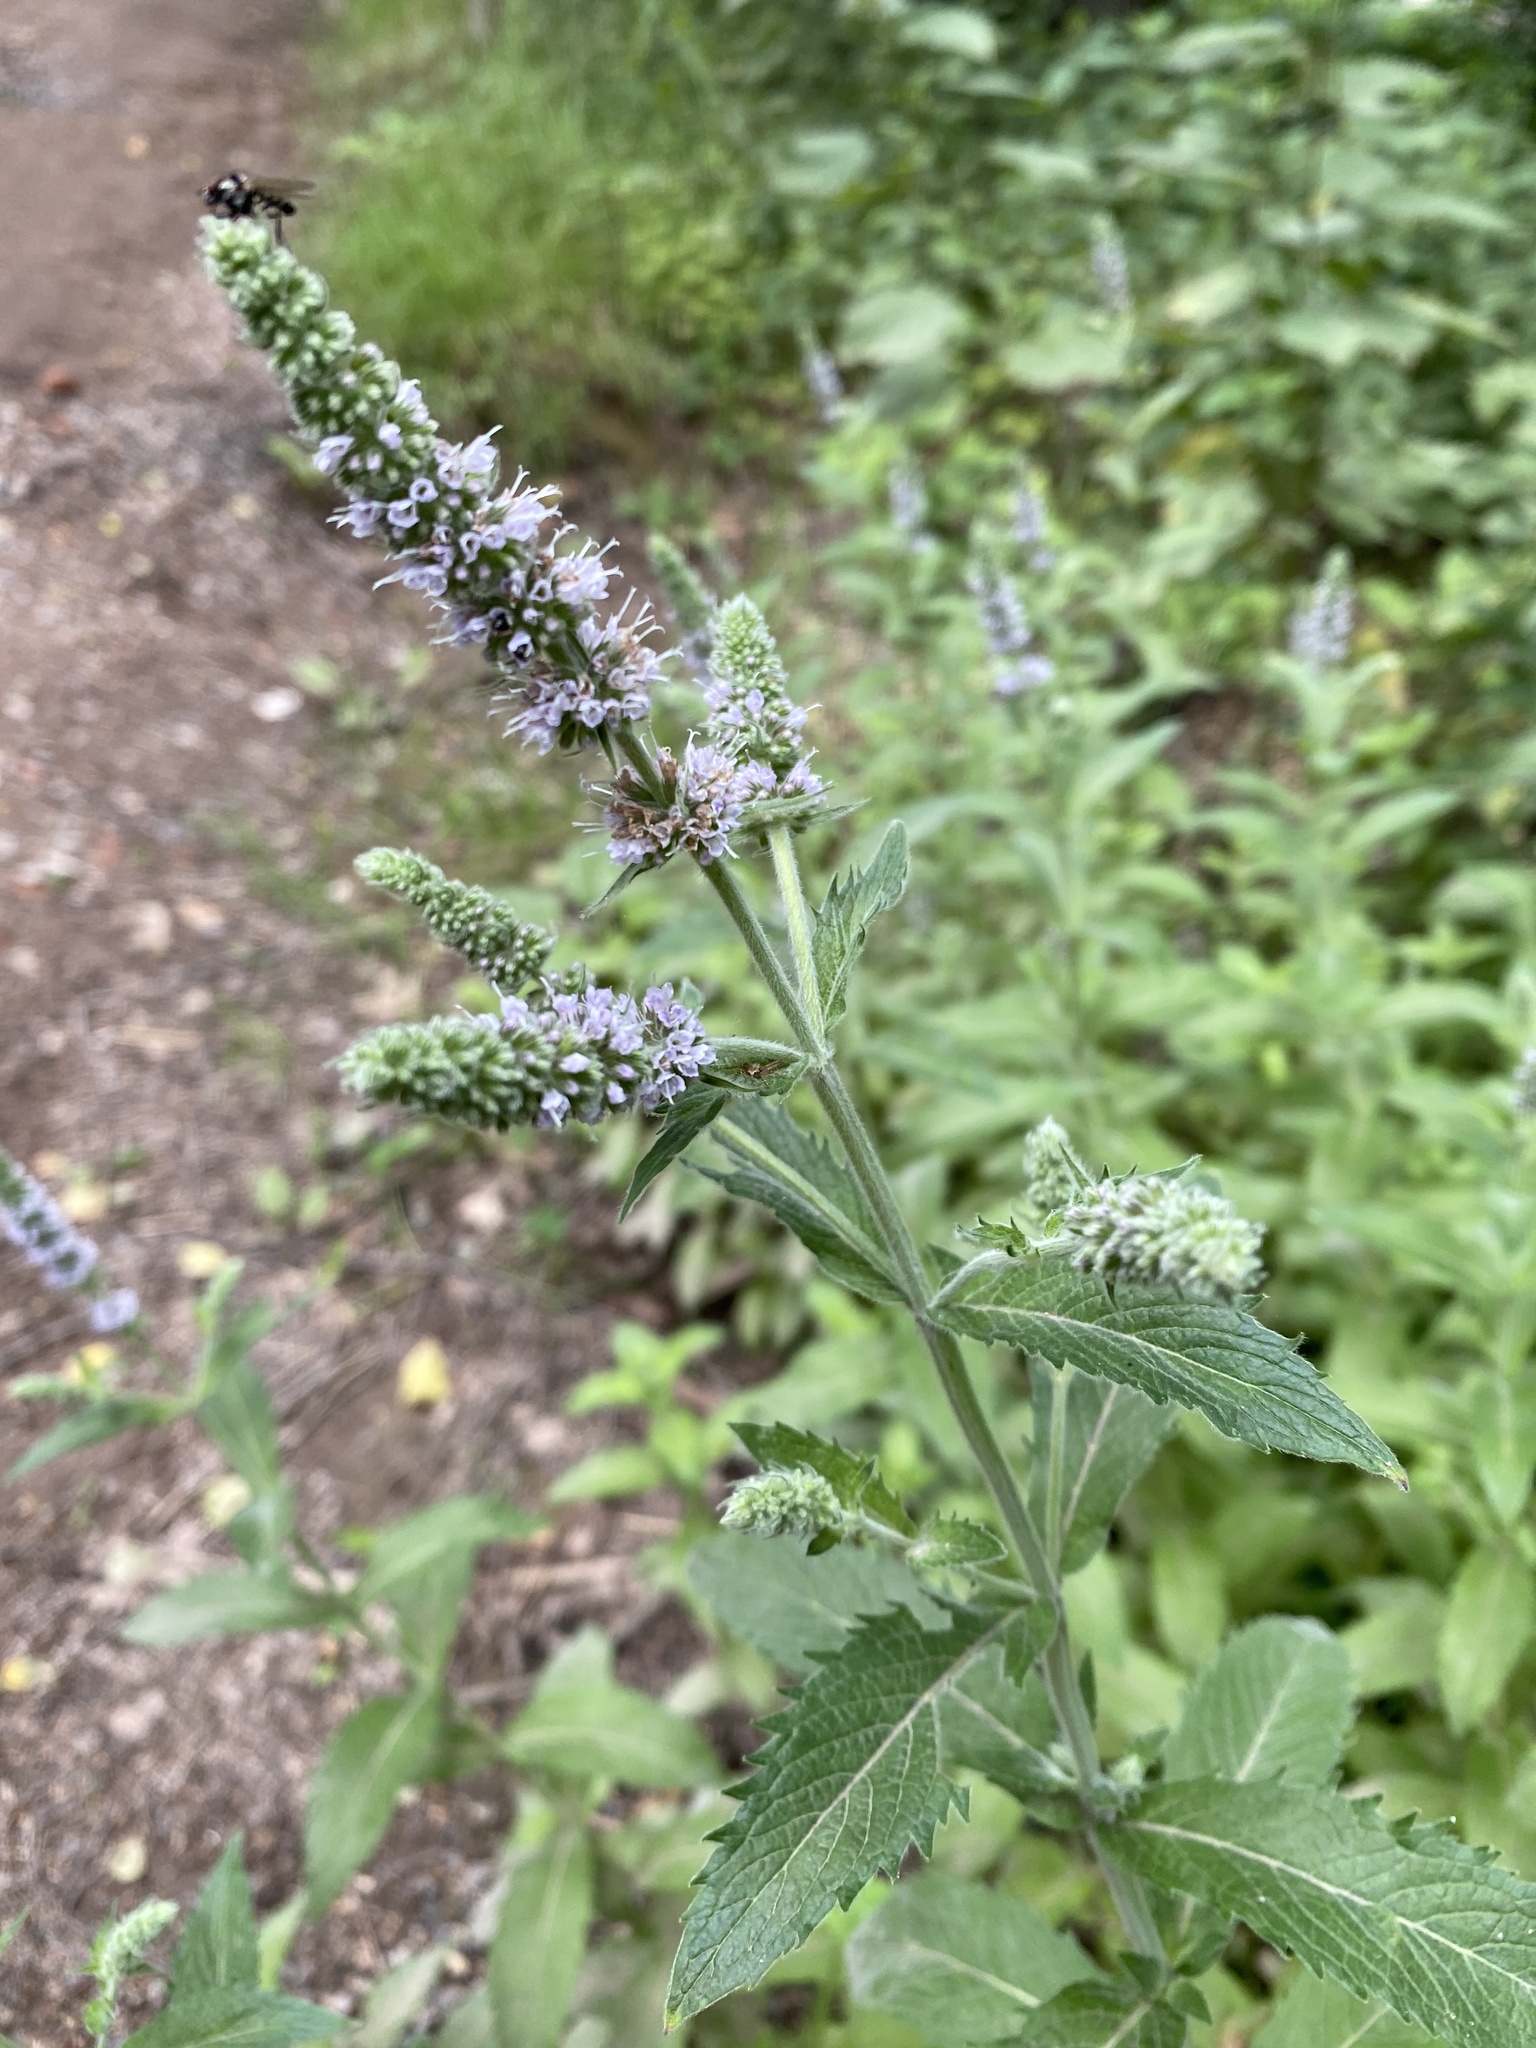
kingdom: Plantae
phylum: Tracheophyta
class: Magnoliopsida
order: Lamiales
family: Lamiaceae
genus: Mentha
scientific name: Mentha spicata
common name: Spearmint
